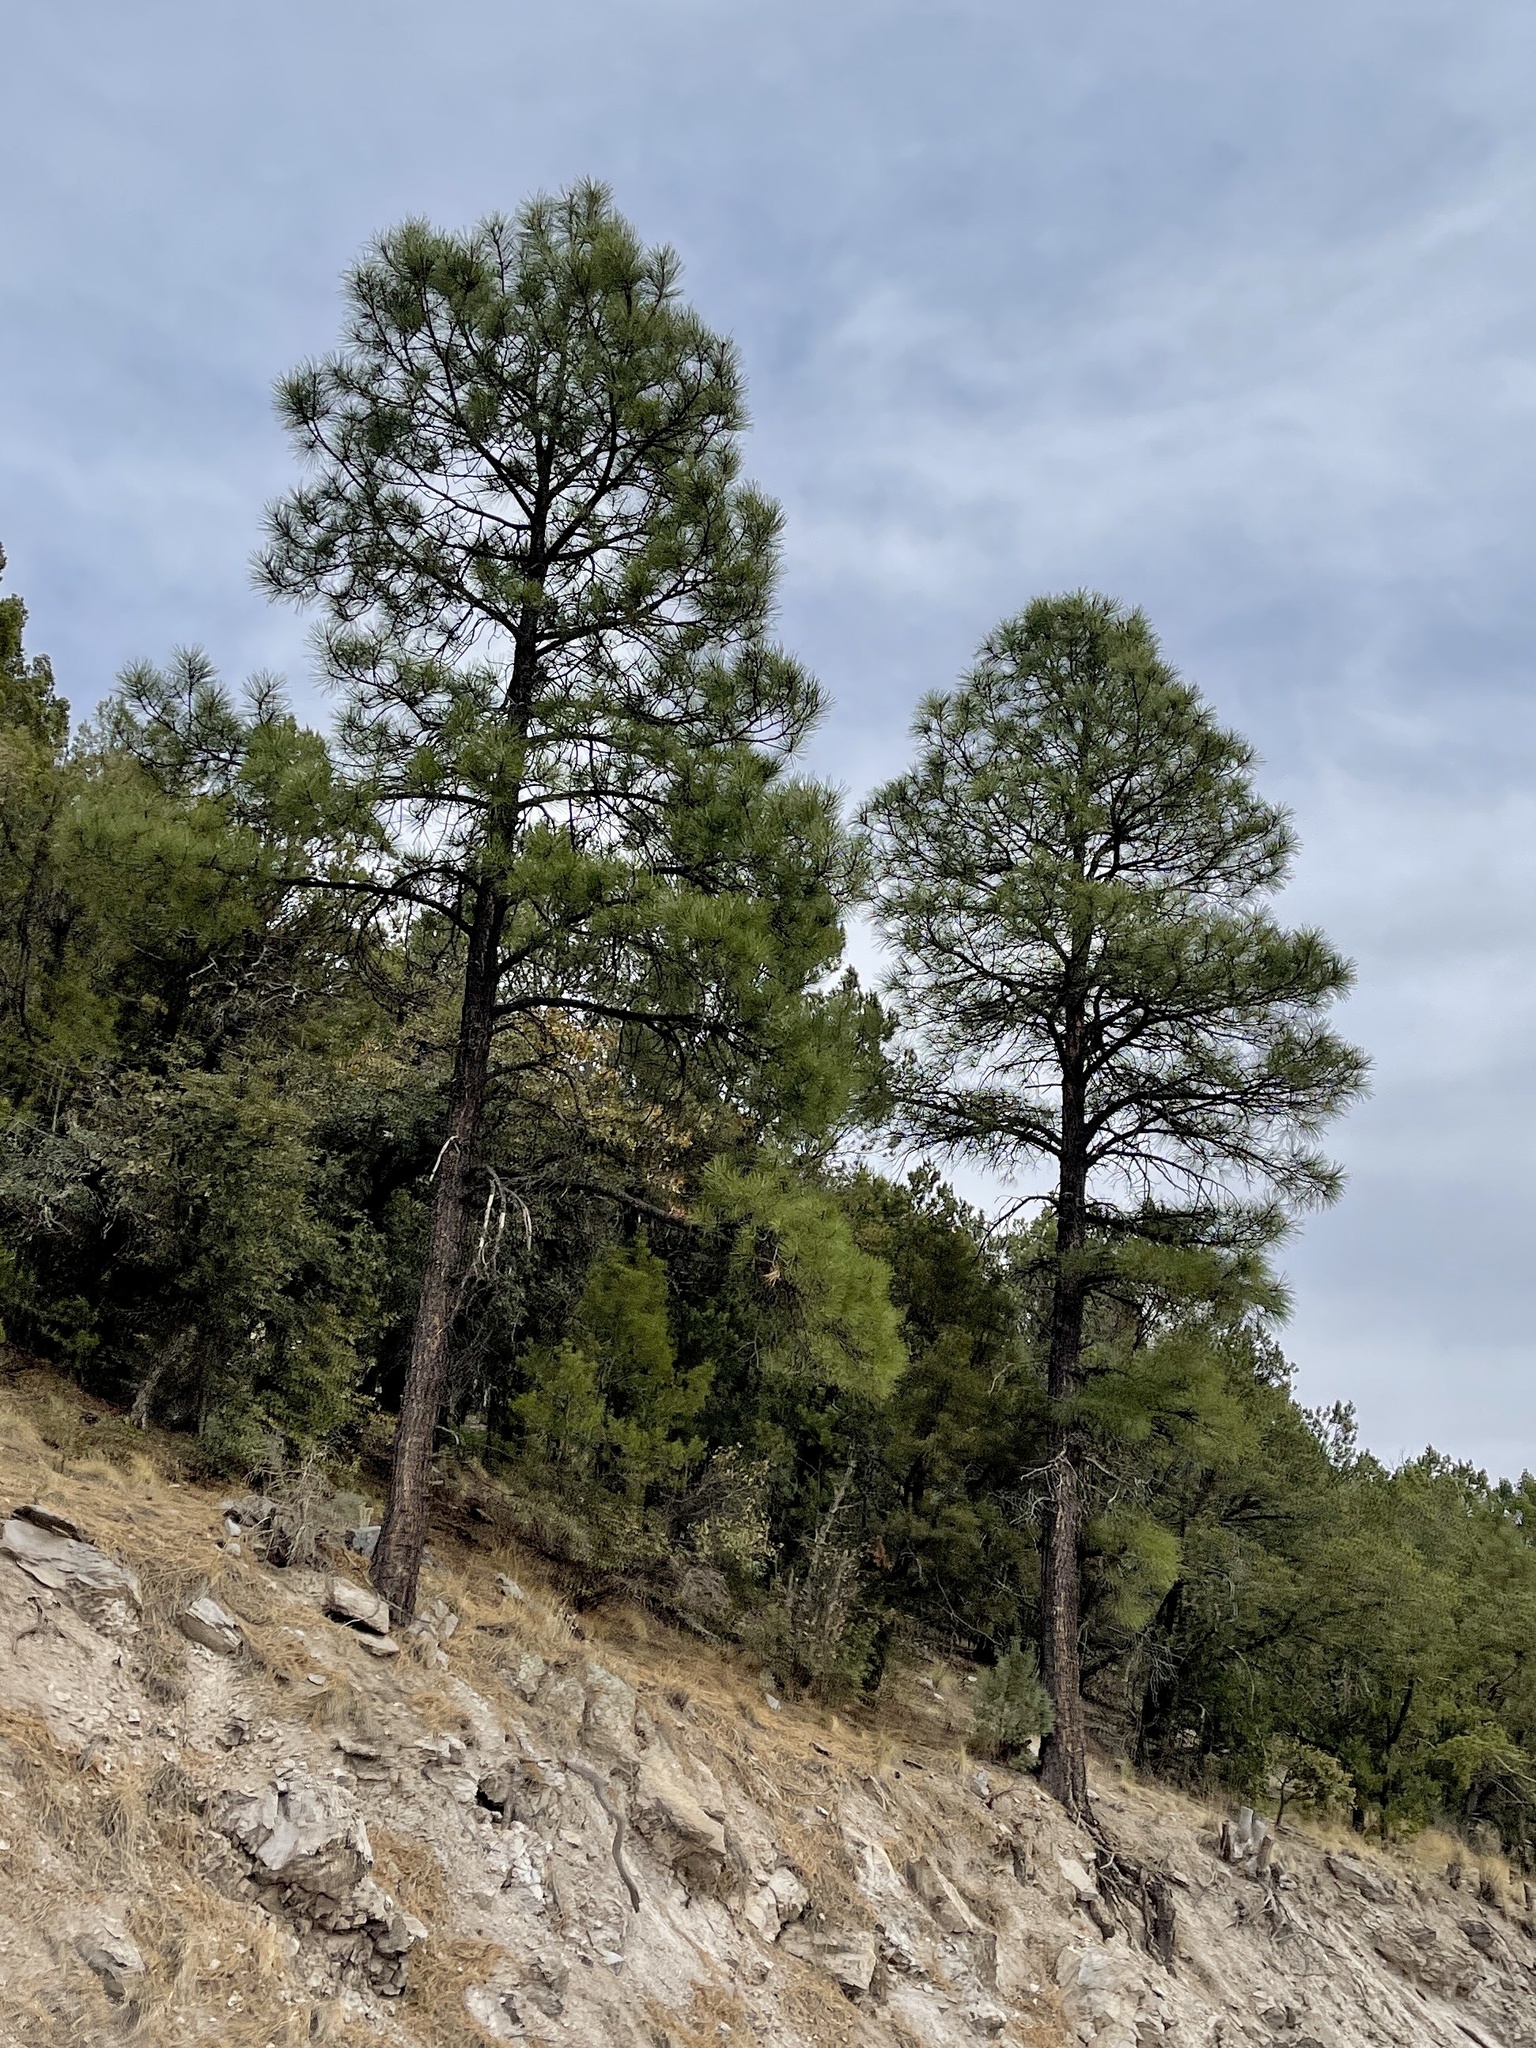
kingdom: Plantae
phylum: Tracheophyta
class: Pinopsida
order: Pinales
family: Pinaceae
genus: Pinus
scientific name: Pinus ponderosa
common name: Western yellow-pine
